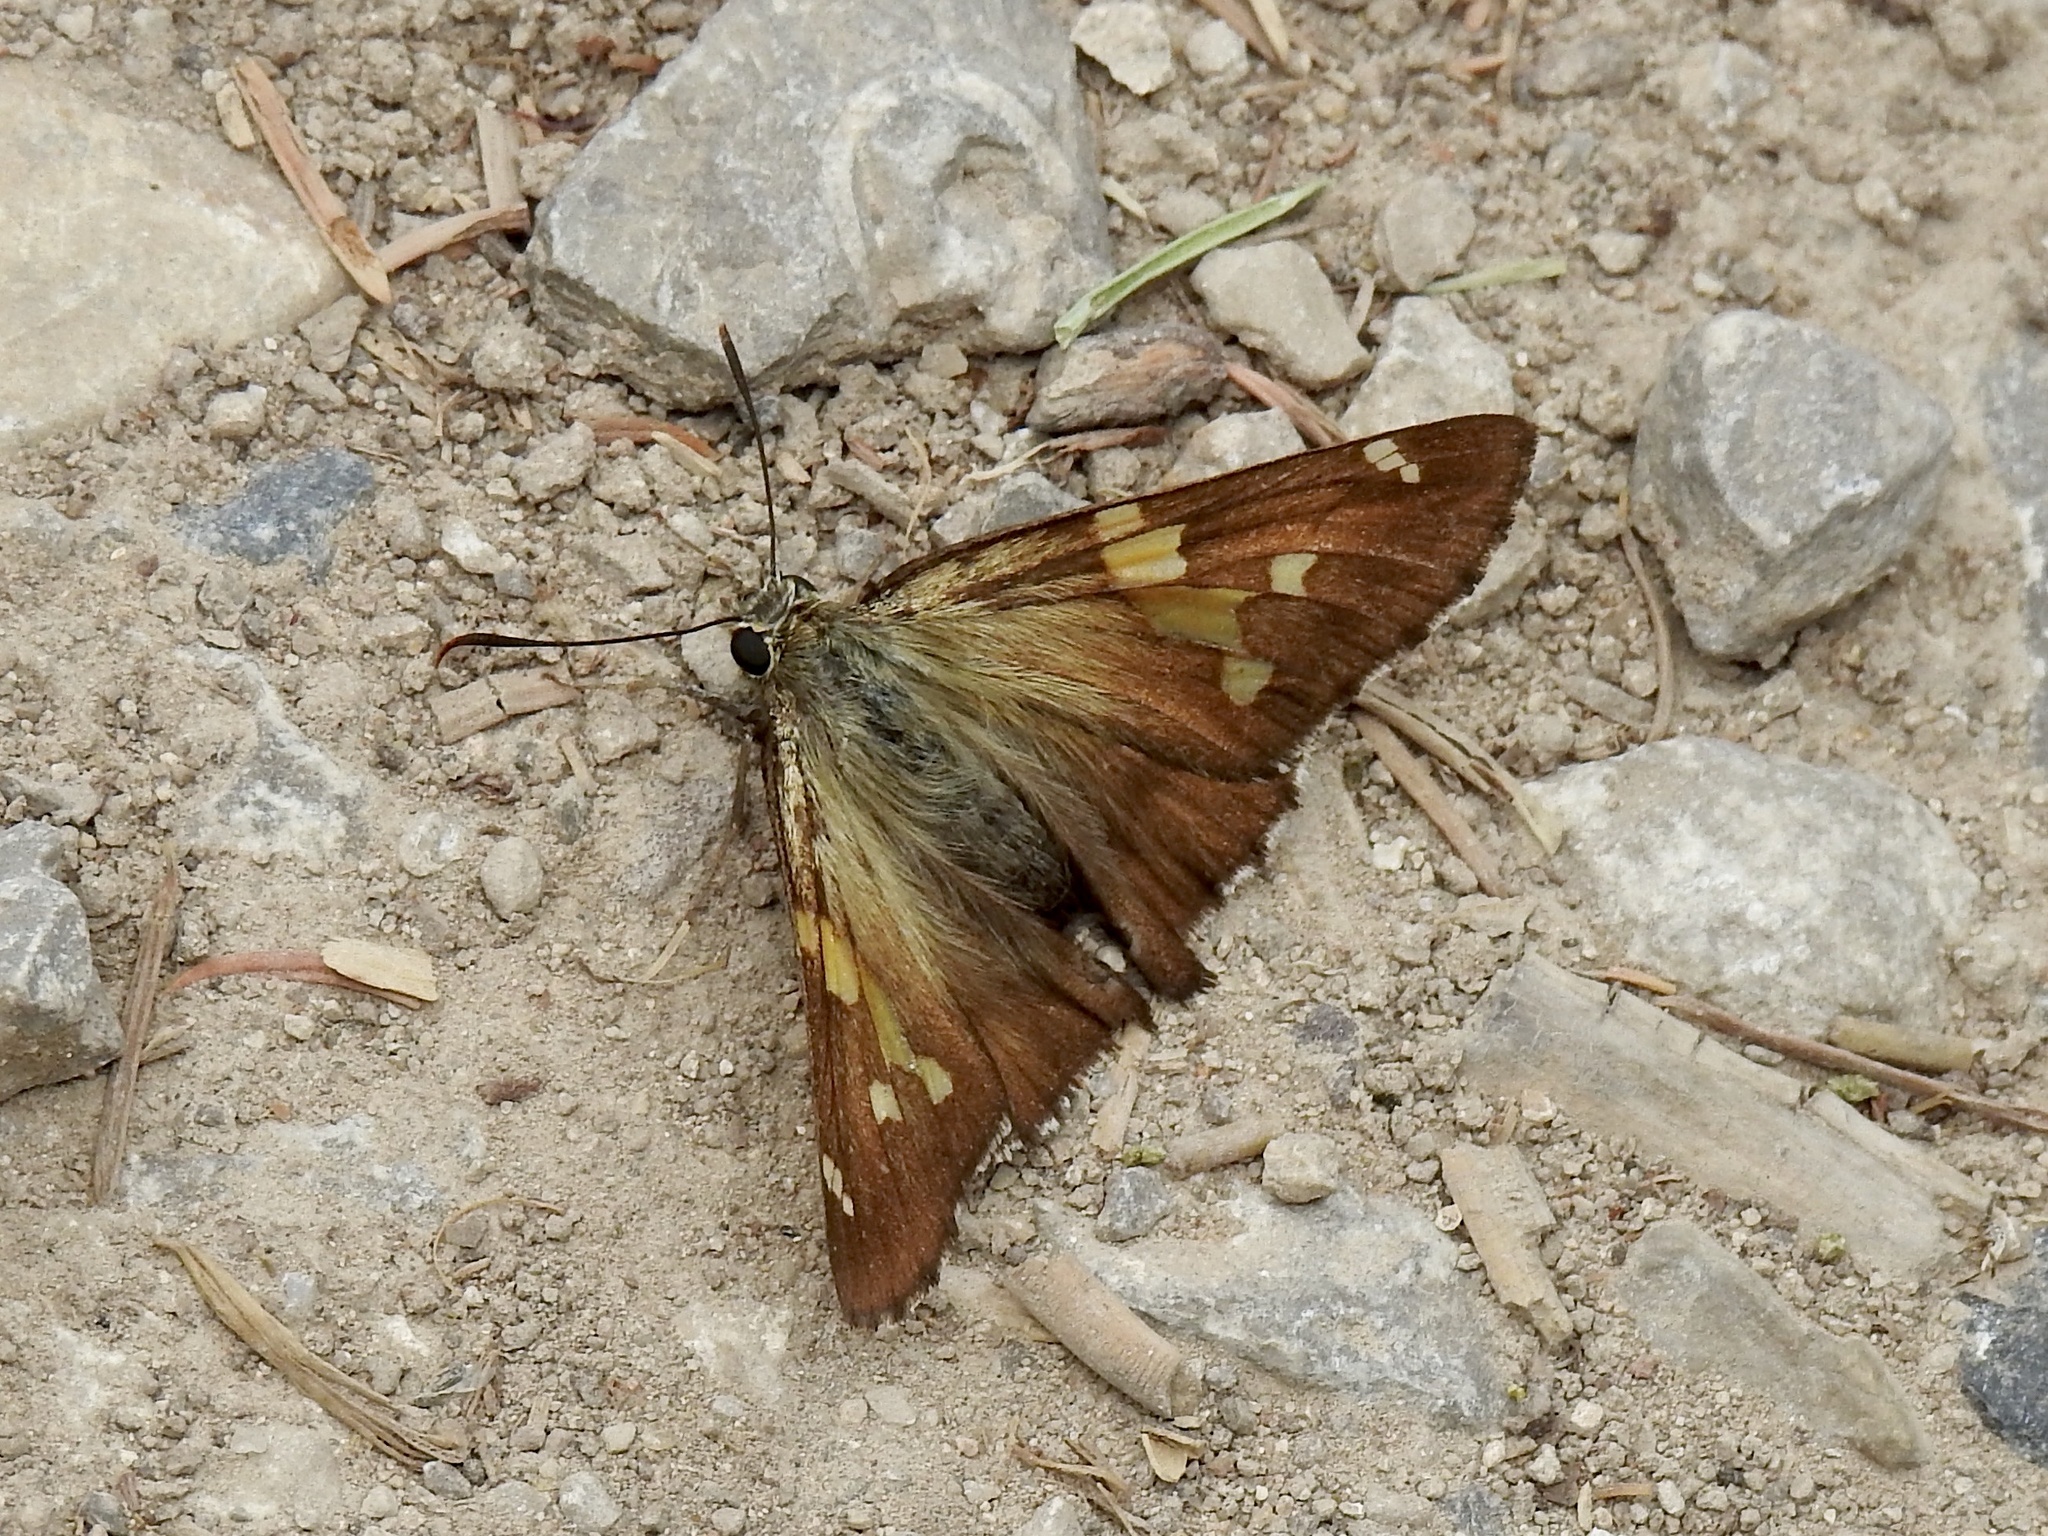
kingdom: Animalia
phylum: Arthropoda
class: Insecta
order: Lepidoptera
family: Hesperiidae
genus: Epargyreus
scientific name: Epargyreus clarus
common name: Silver-spotted skipper
